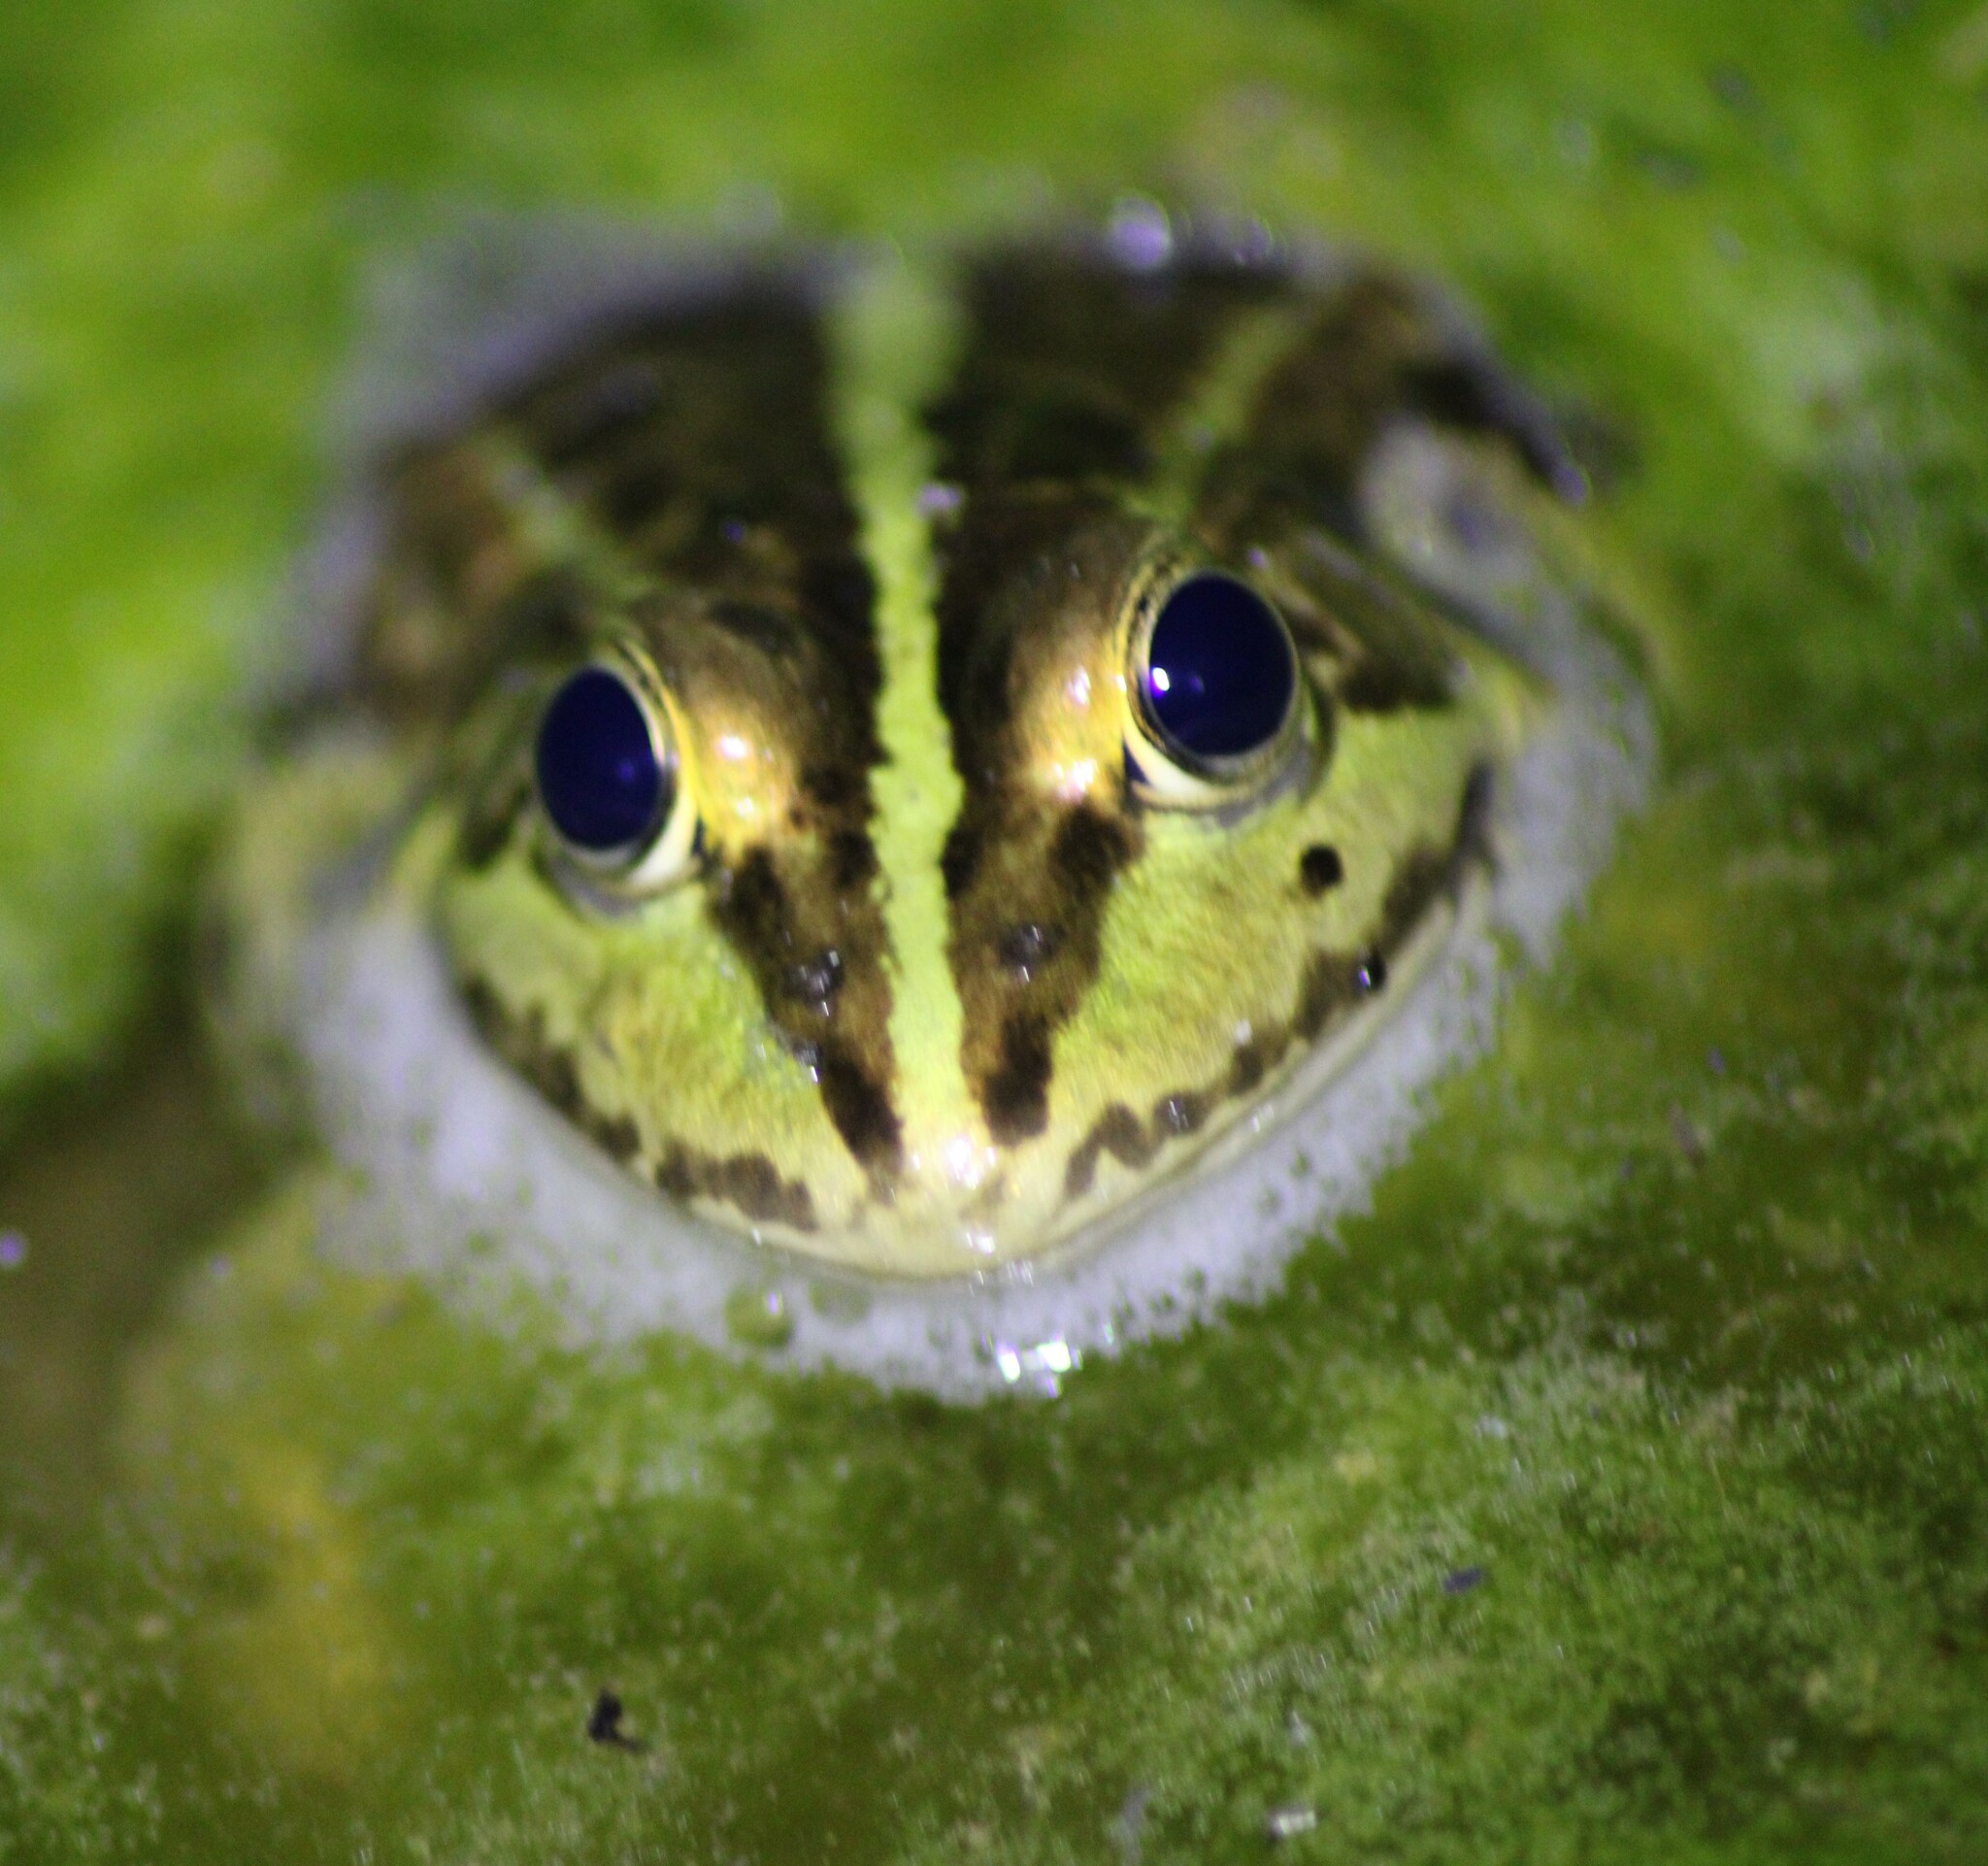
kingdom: Animalia
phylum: Chordata
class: Amphibia
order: Anura
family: Ranidae
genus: Pelophylax
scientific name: Pelophylax
